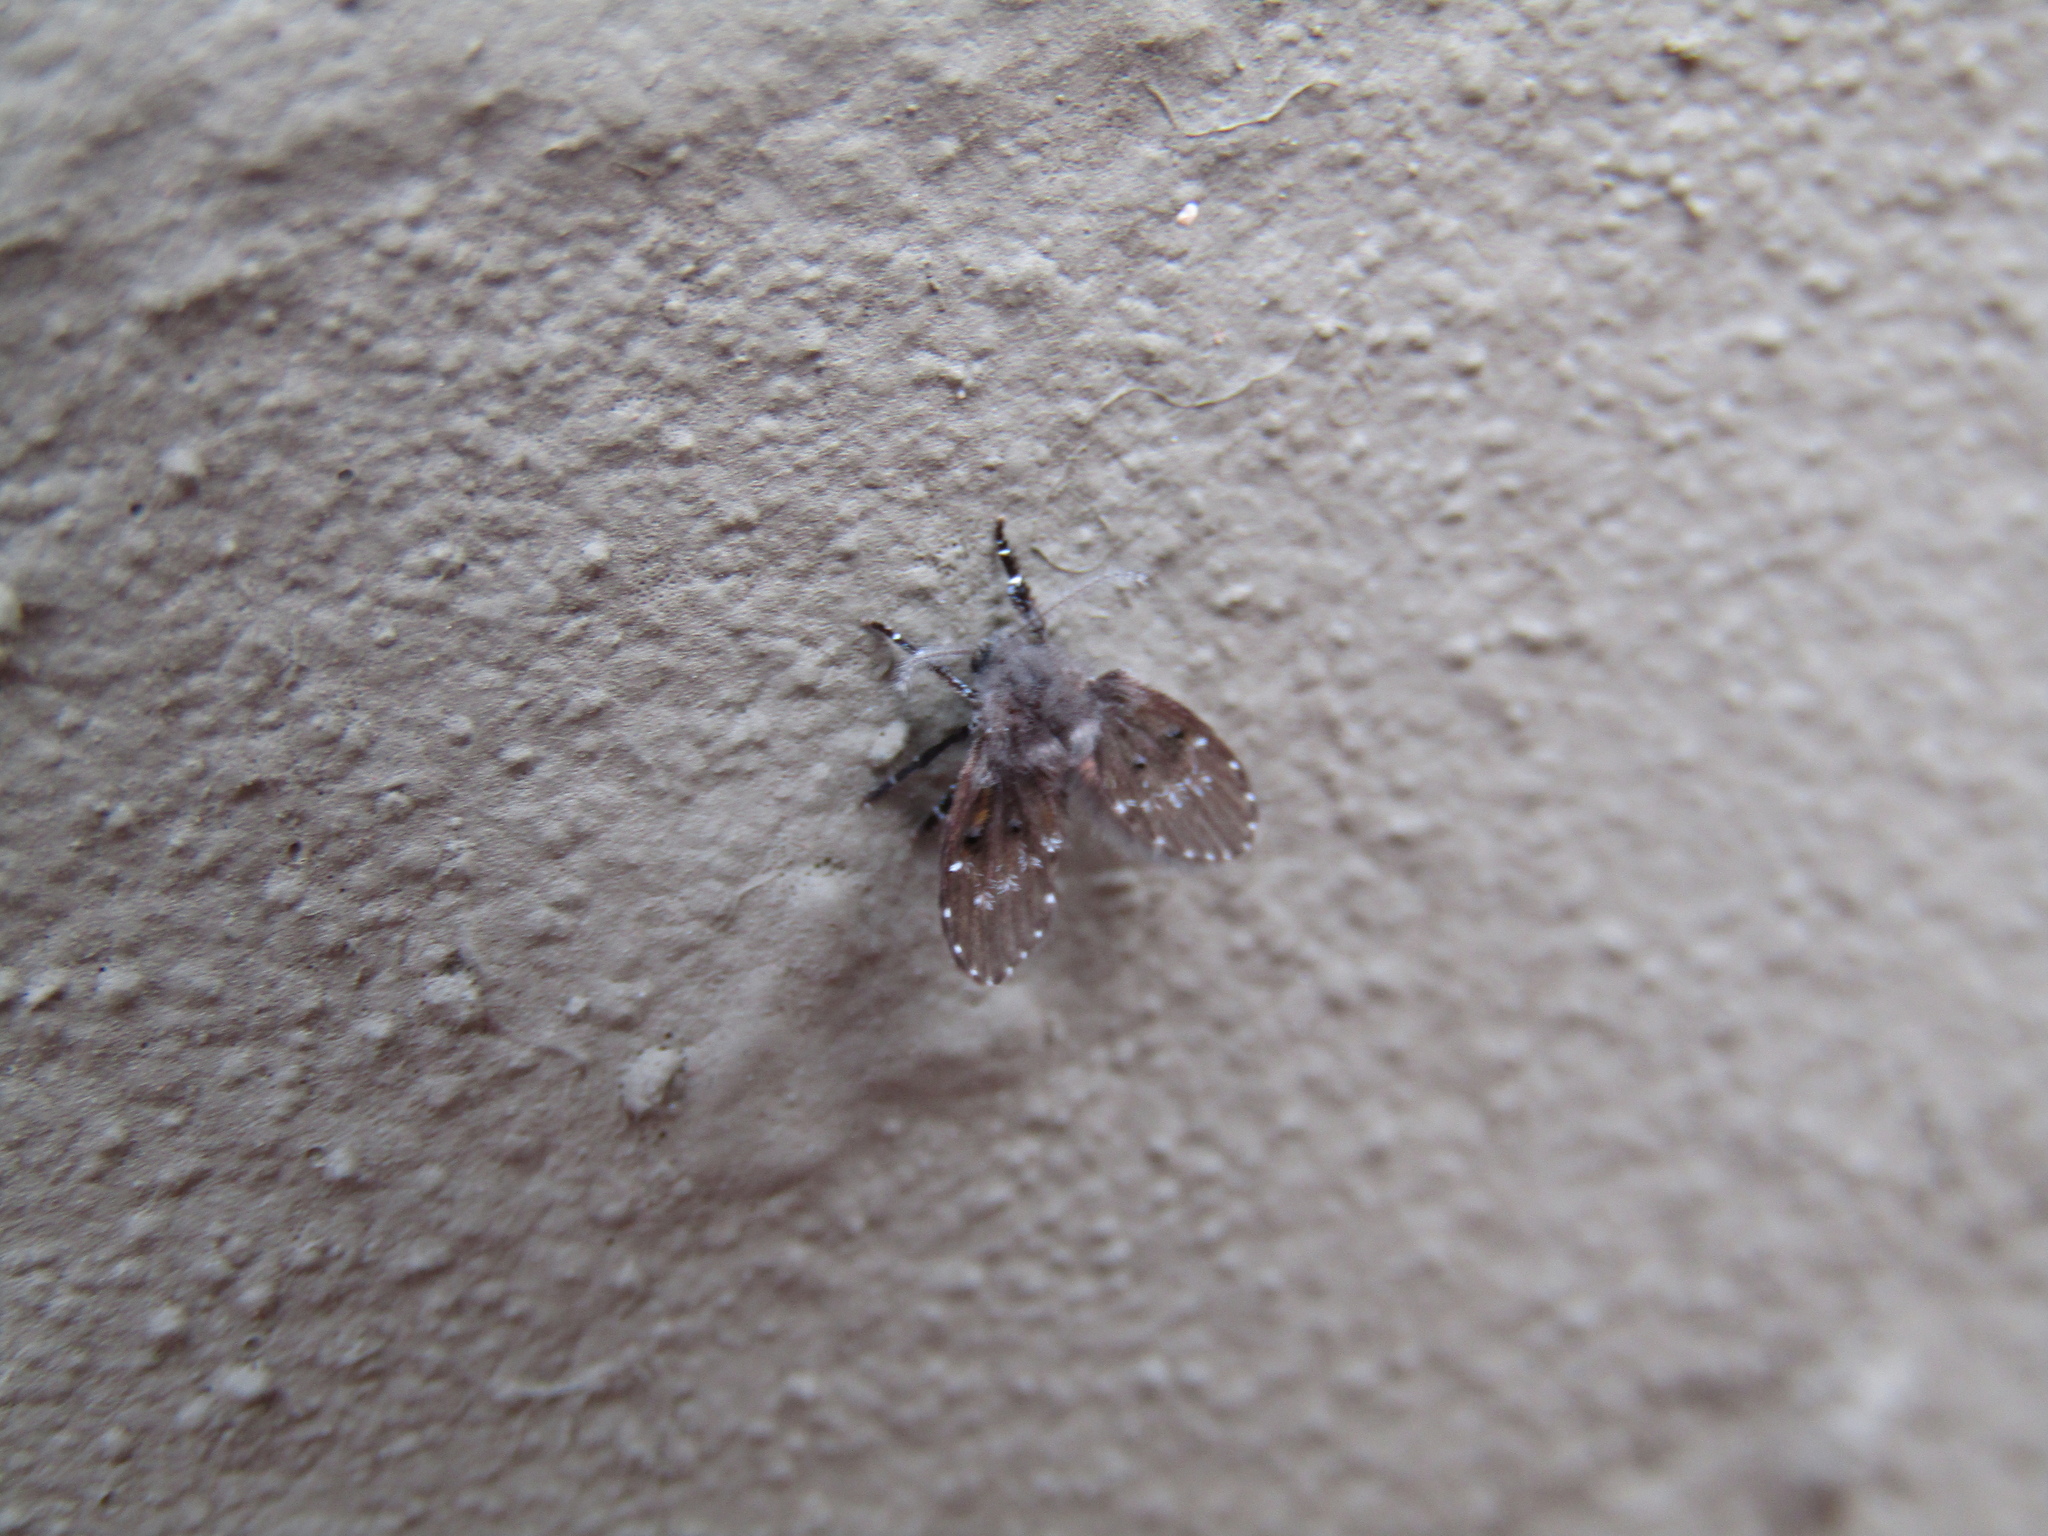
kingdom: Animalia
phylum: Arthropoda
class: Insecta
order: Diptera
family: Psychodidae
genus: Clogmia
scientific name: Clogmia albipunctatus
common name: White-spotted moth fly
